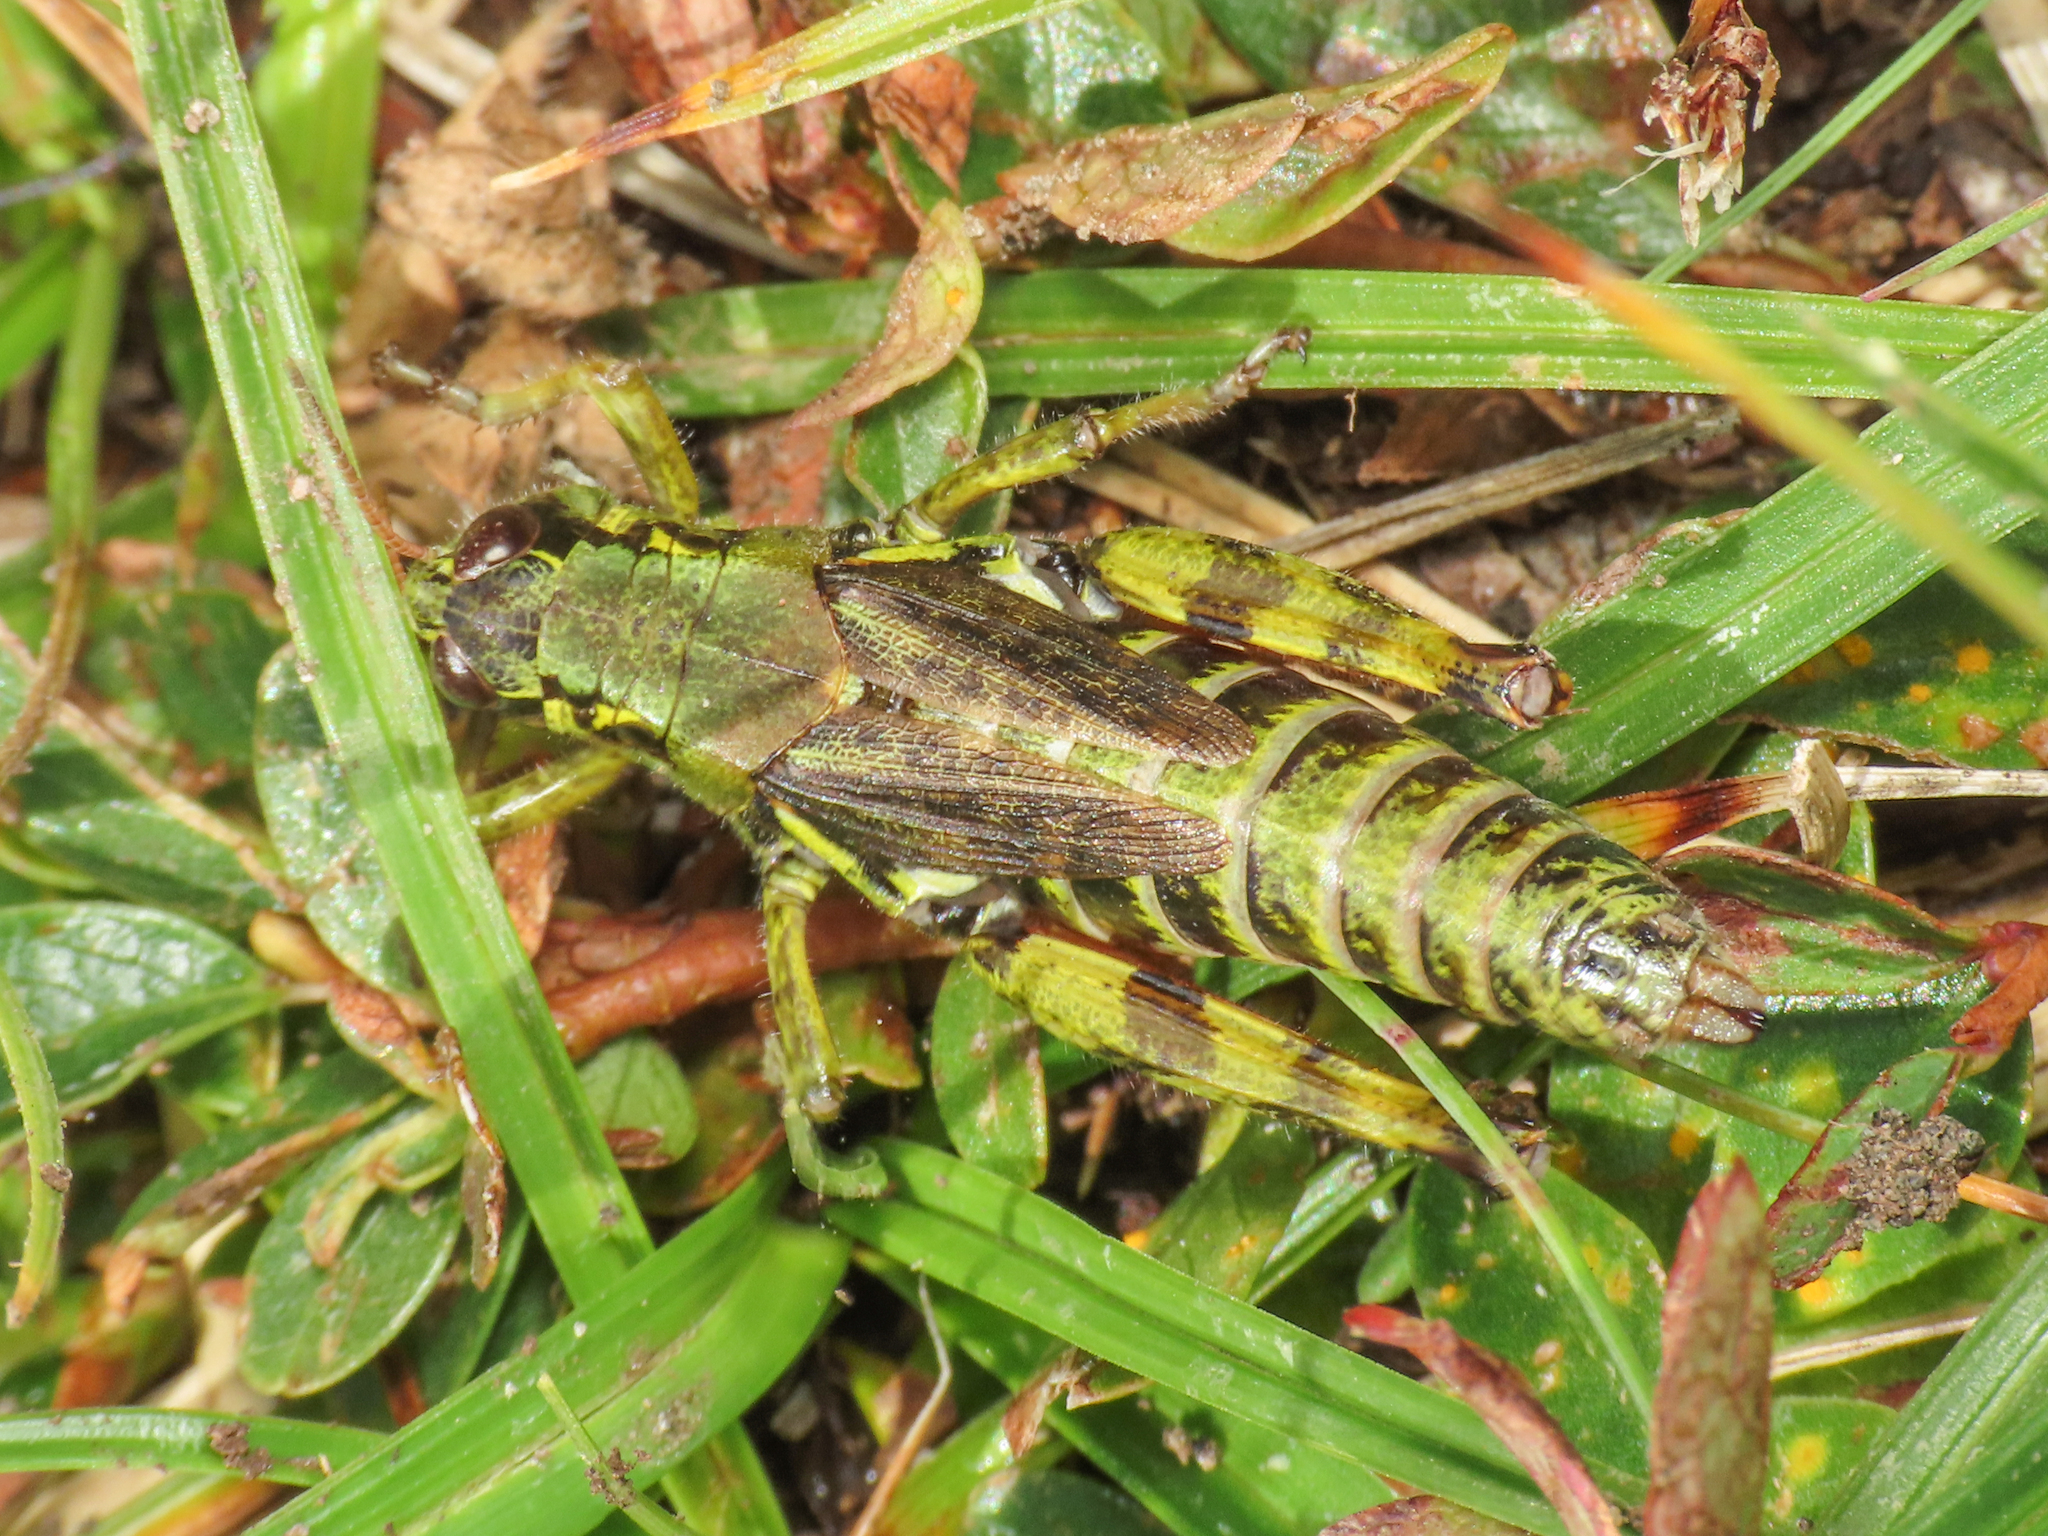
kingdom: Animalia
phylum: Arthropoda
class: Insecta
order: Orthoptera
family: Acrididae
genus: Bohemanella
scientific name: Bohemanella frigida
